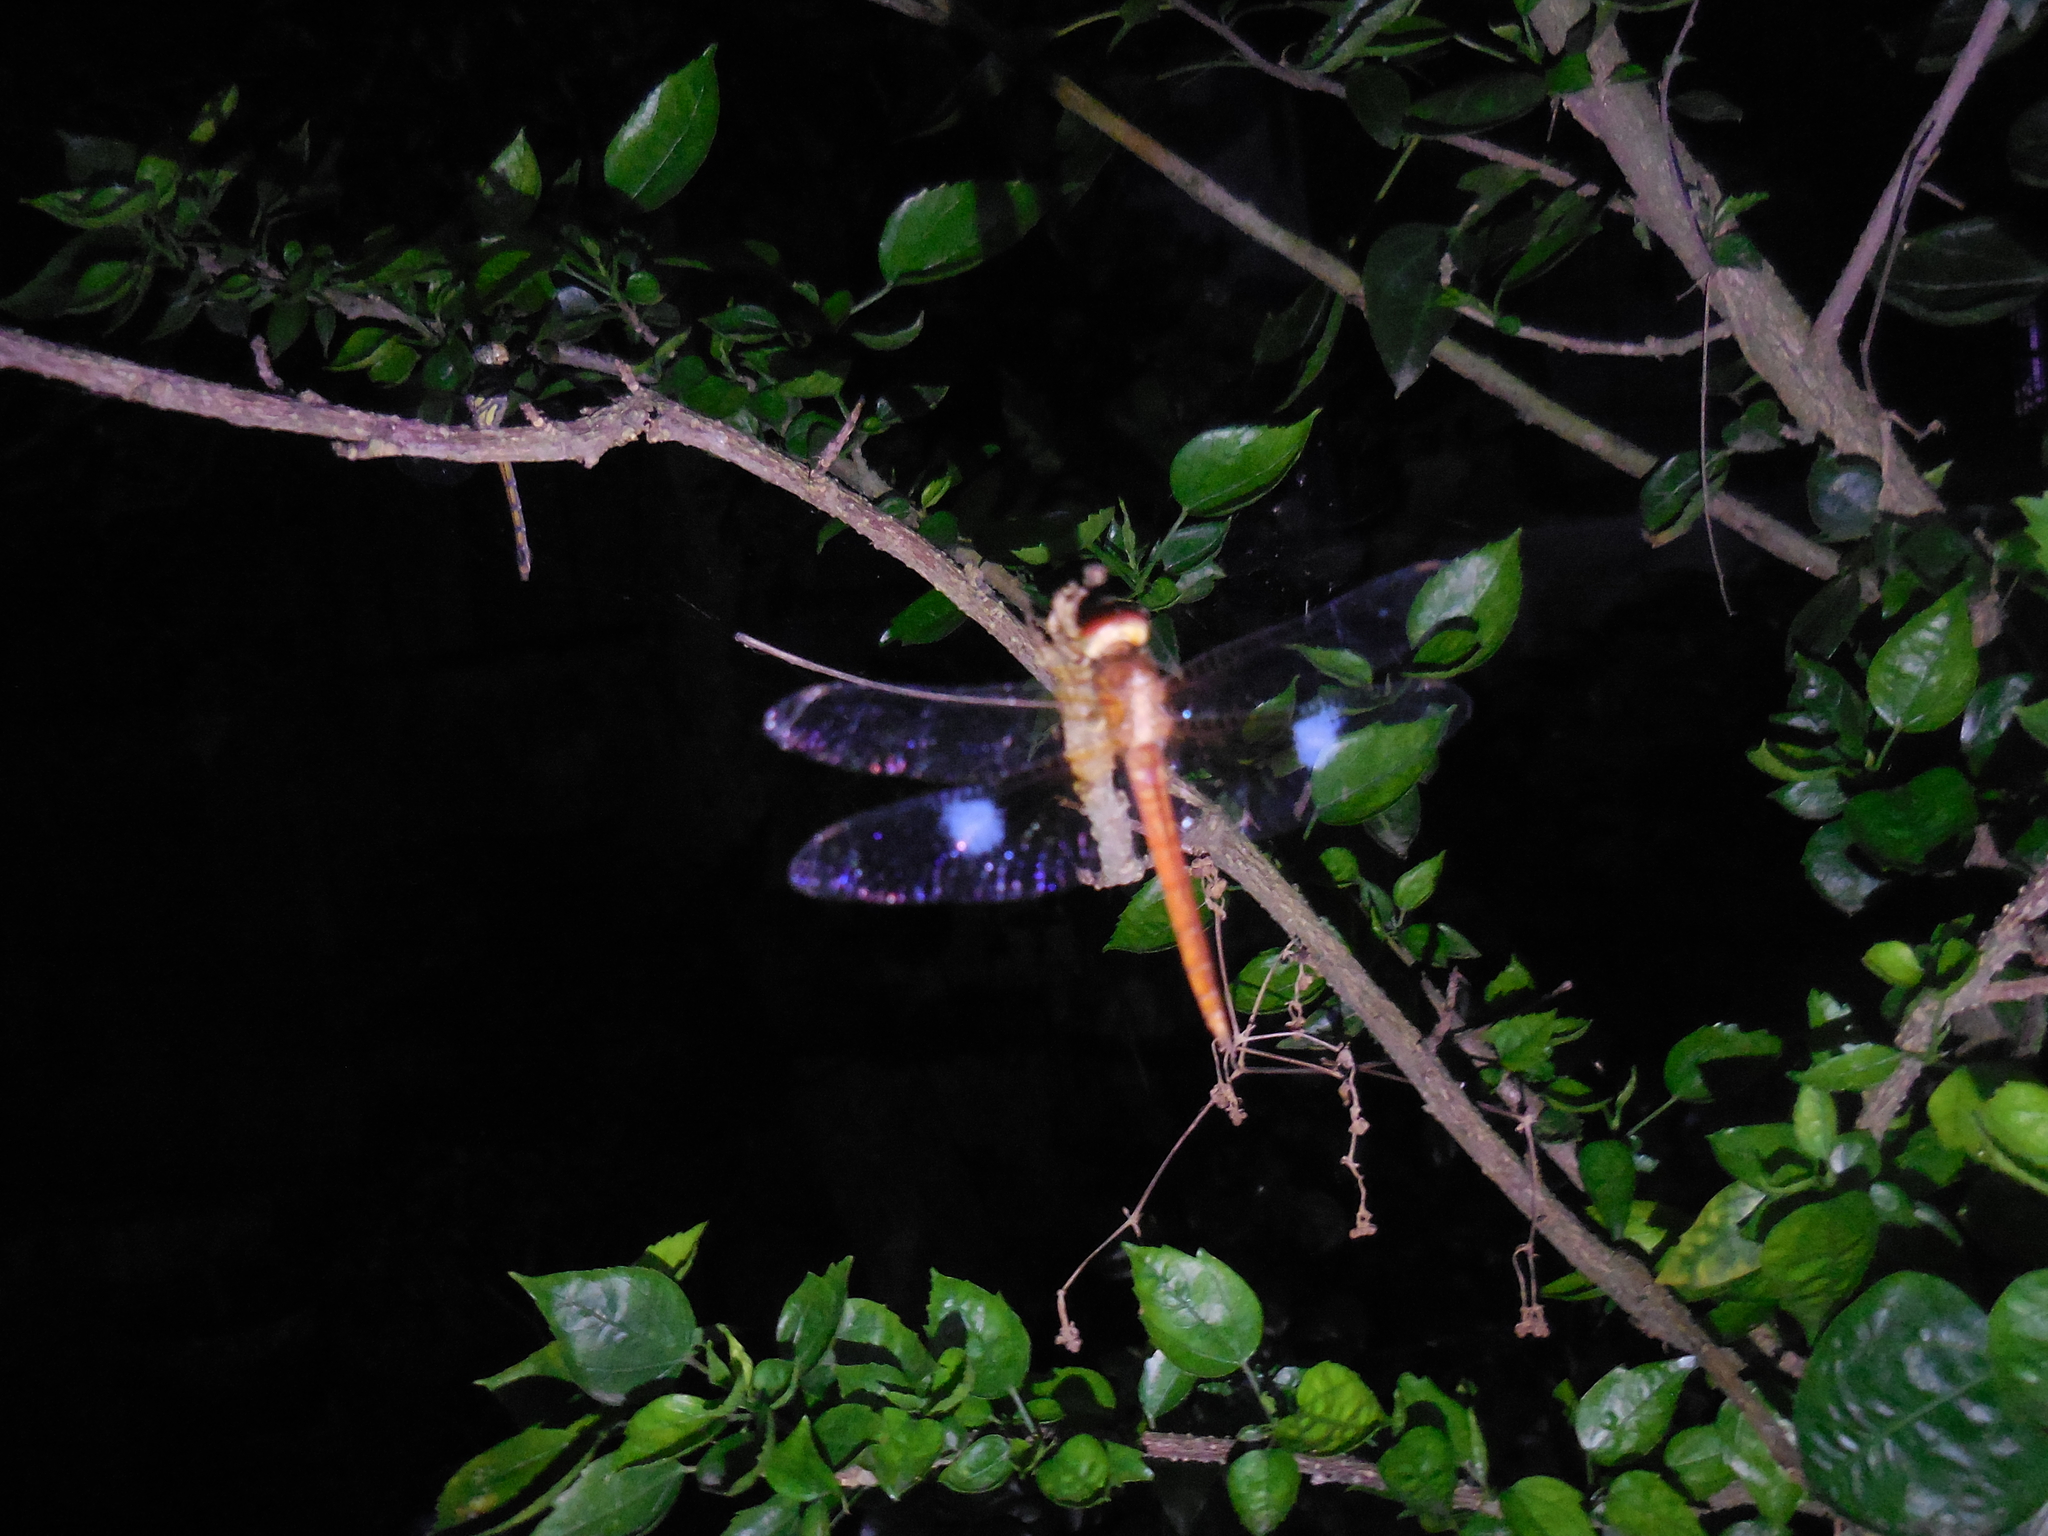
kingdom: Animalia
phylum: Arthropoda
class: Insecta
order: Odonata
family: Libellulidae
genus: Tholymis
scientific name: Tholymis tillarga
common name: Coral-tailed cloud wing
